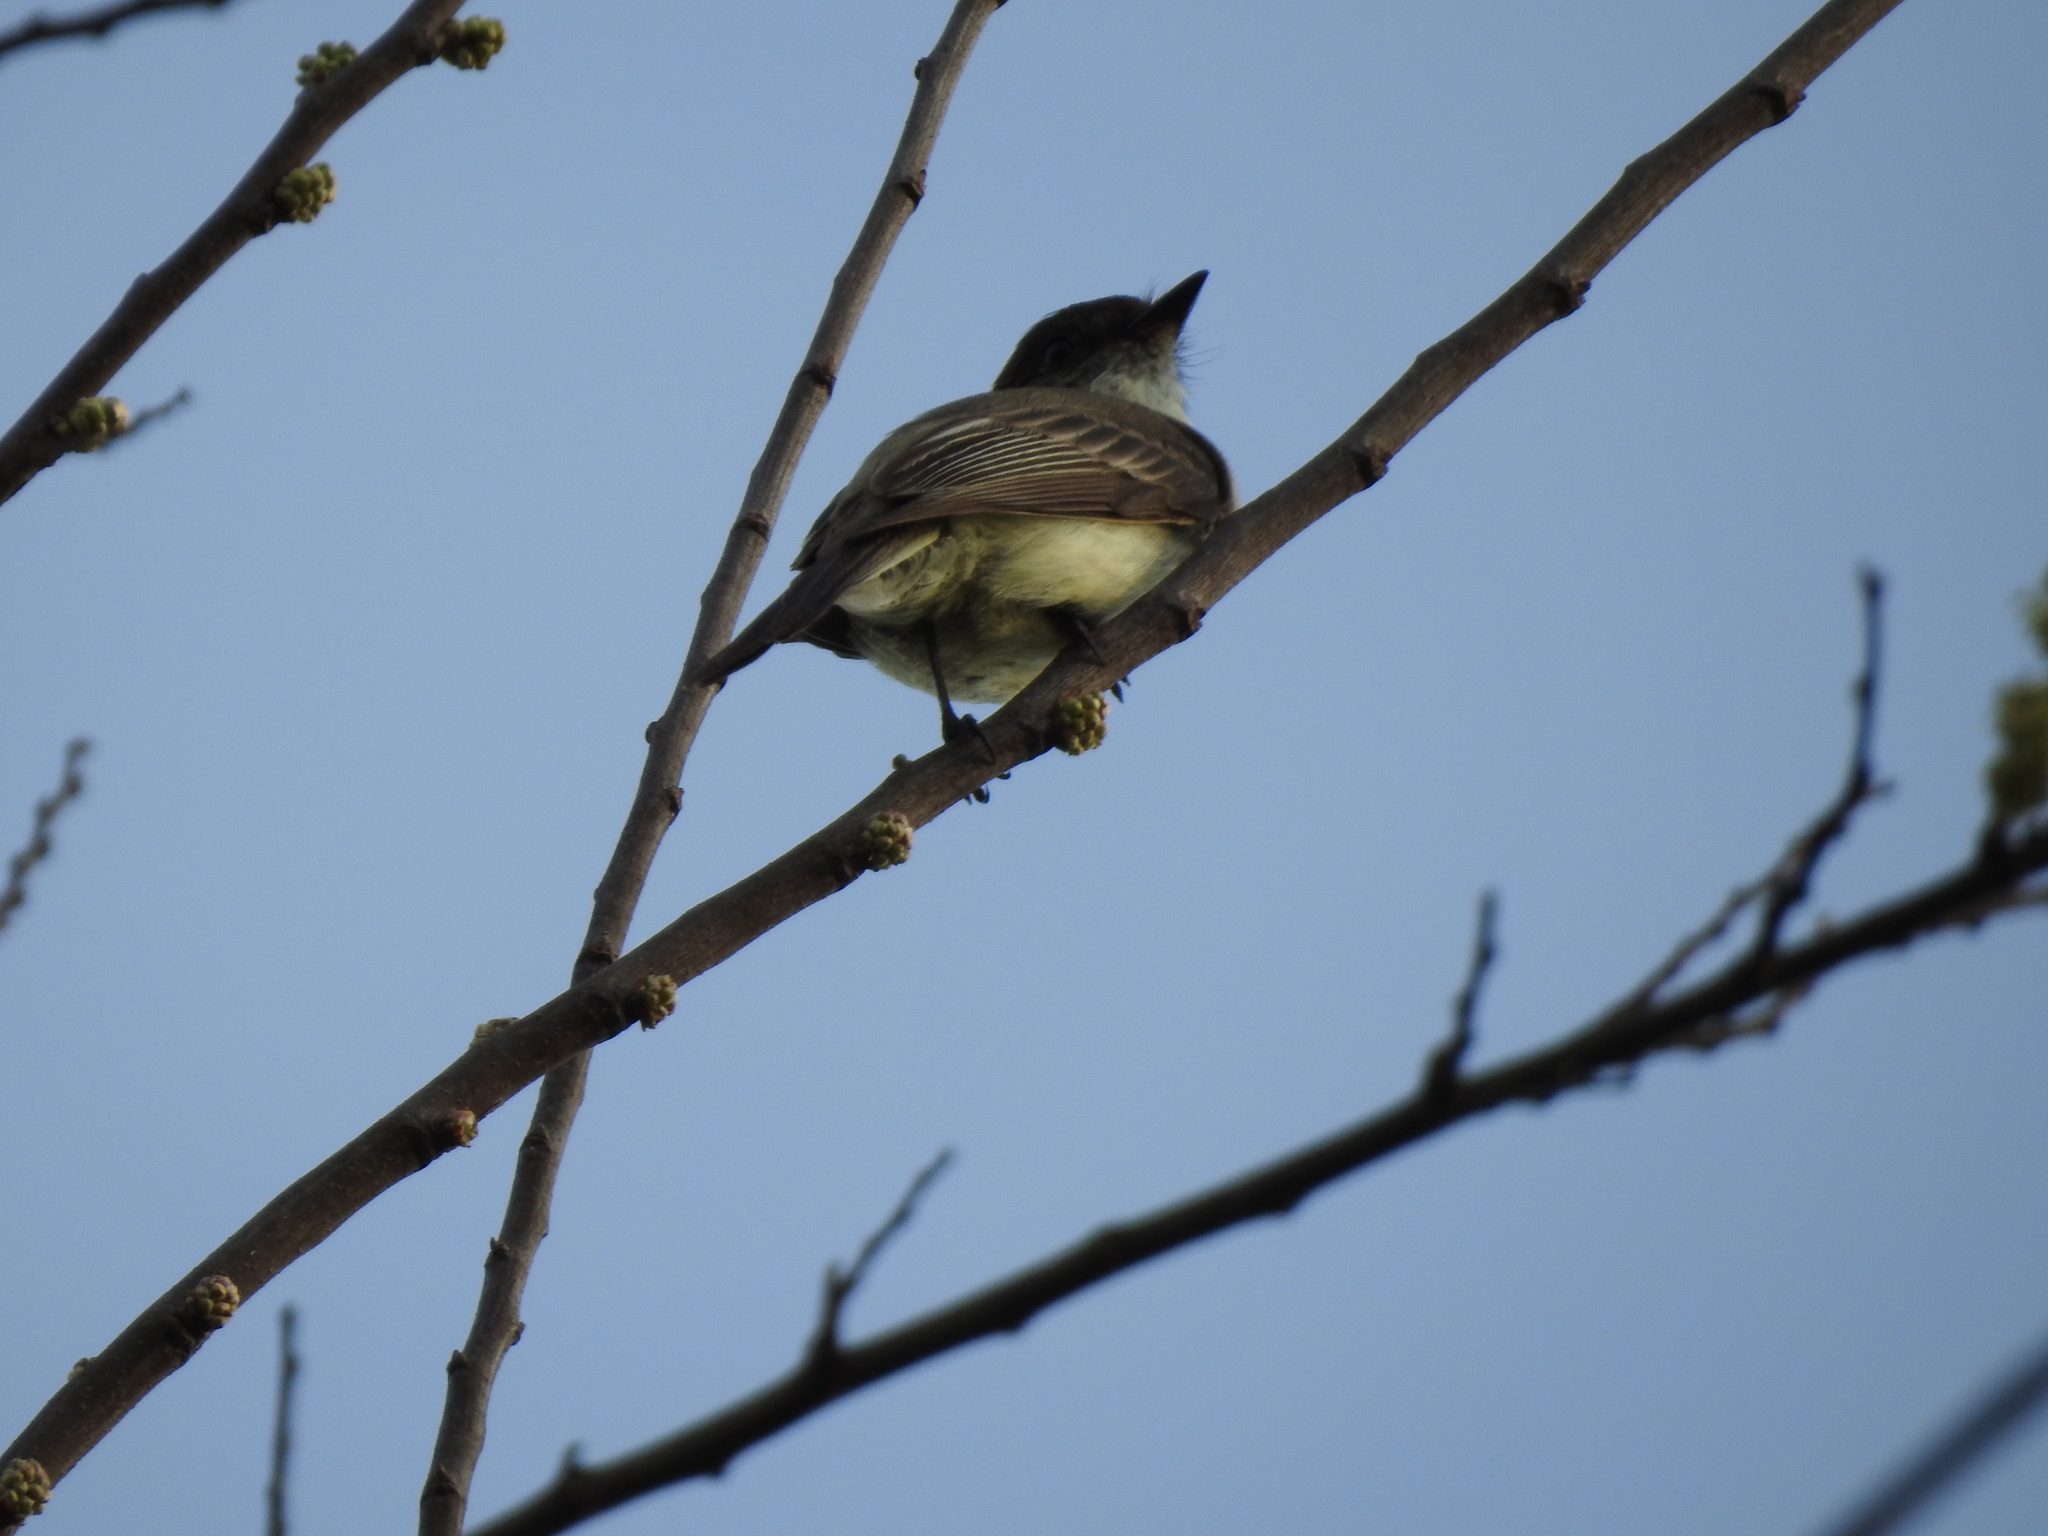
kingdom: Animalia
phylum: Chordata
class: Aves
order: Passeriformes
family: Tyrannidae
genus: Sayornis
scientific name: Sayornis phoebe
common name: Eastern phoebe
